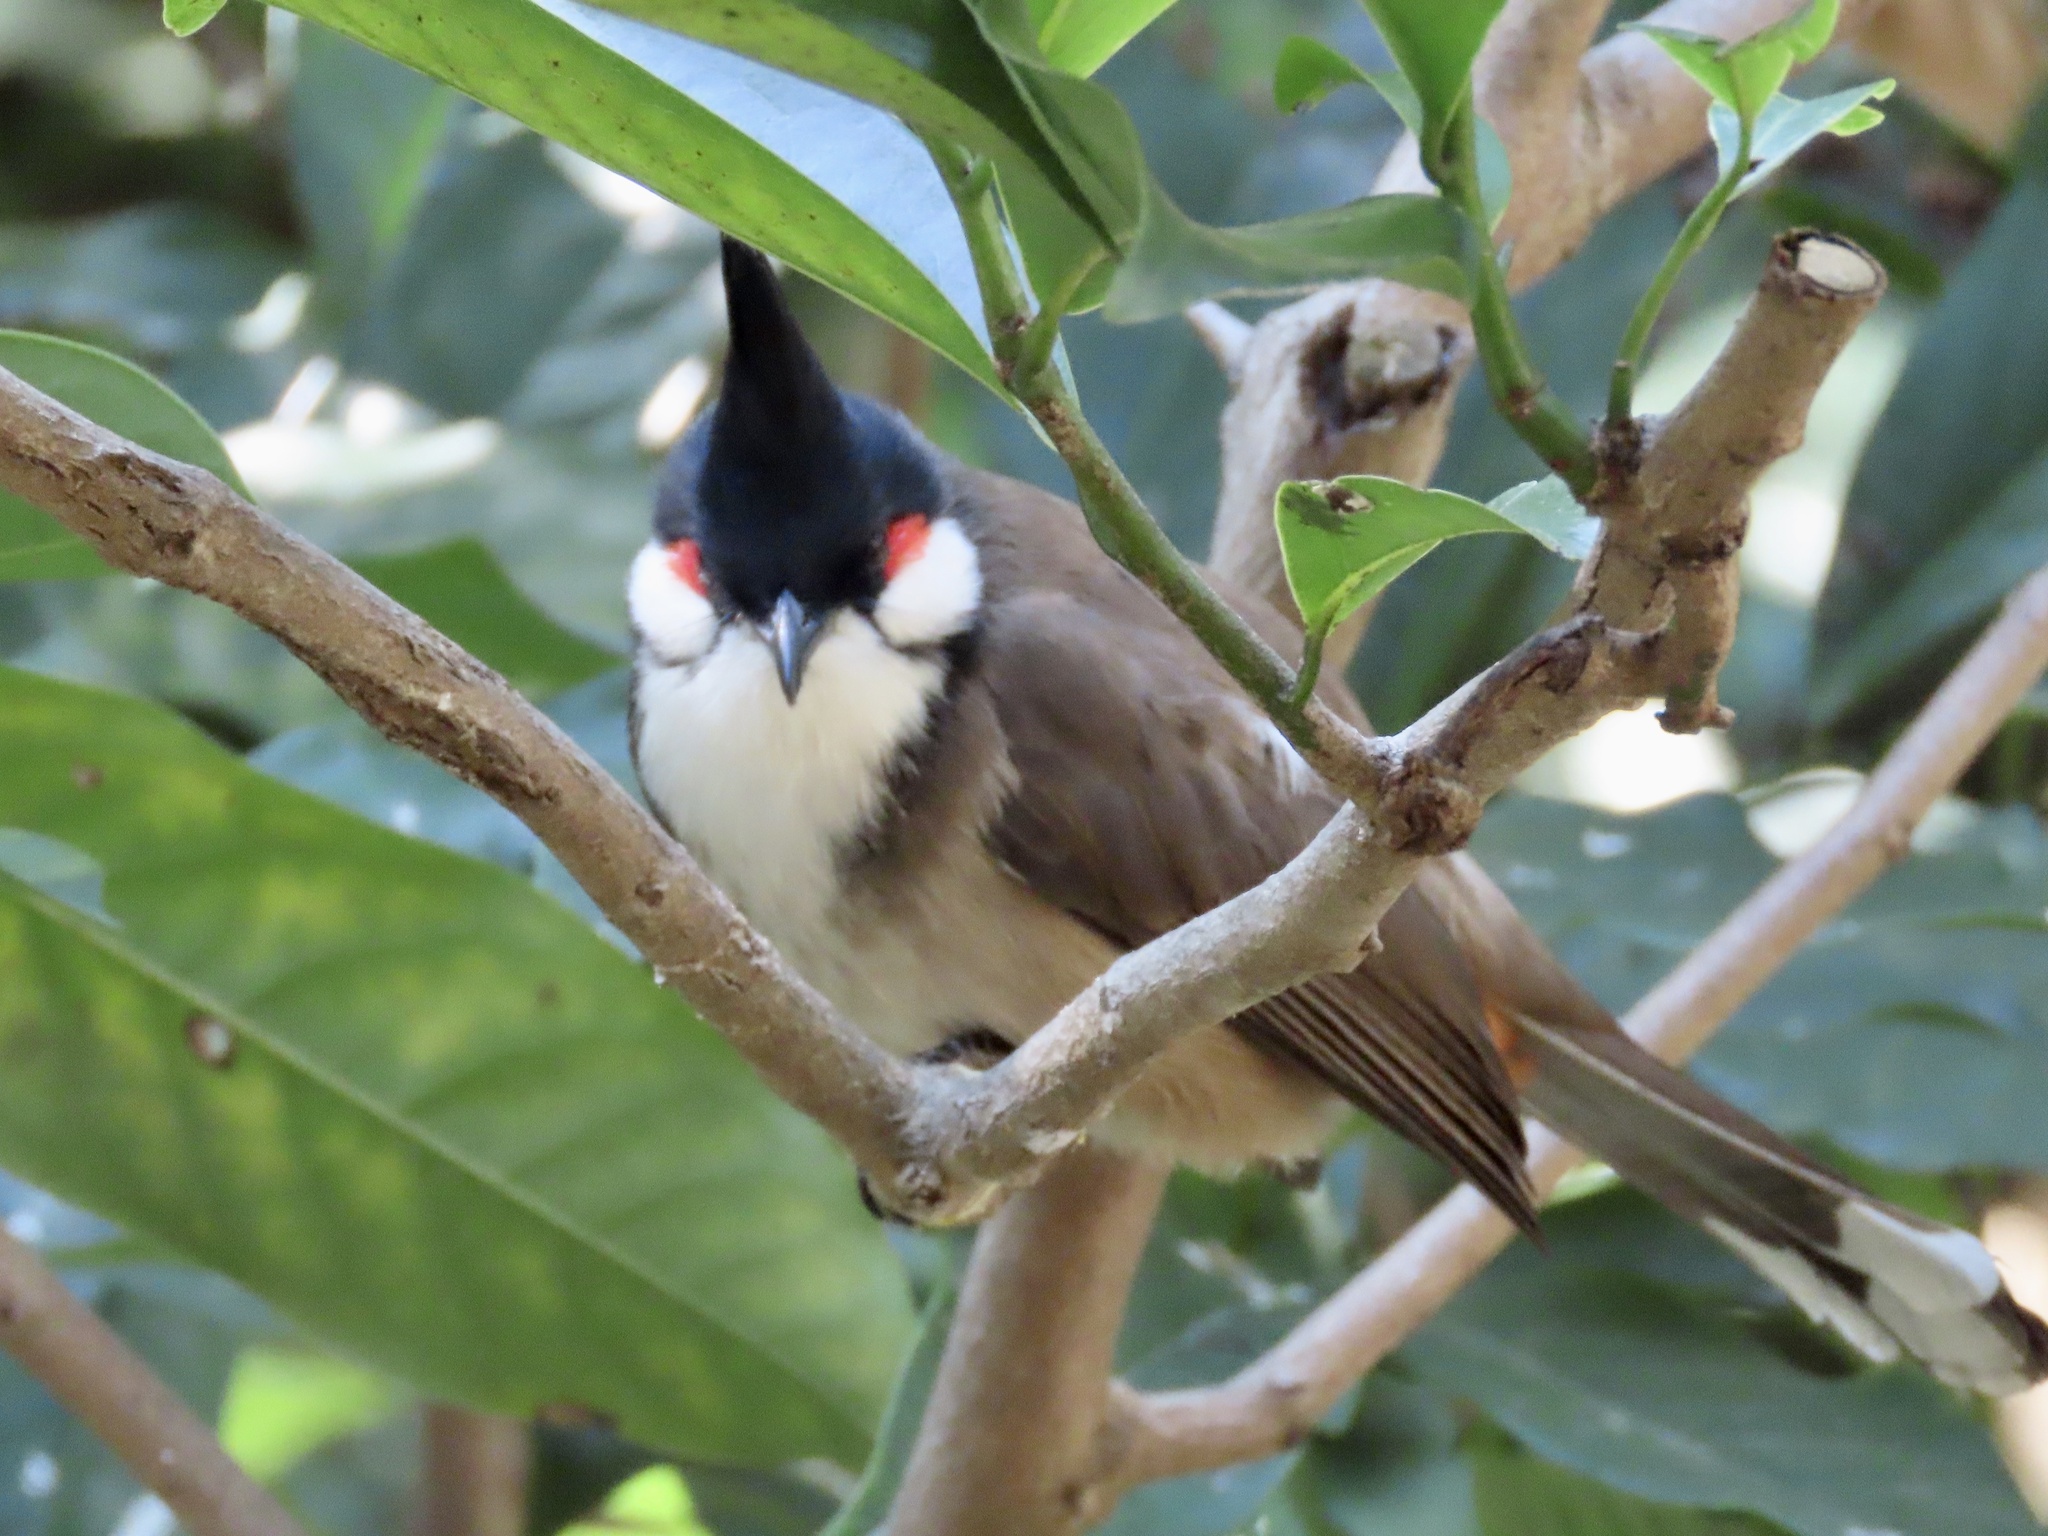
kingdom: Animalia
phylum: Chordata
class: Aves
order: Passeriformes
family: Pycnonotidae
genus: Pycnonotus
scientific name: Pycnonotus jocosus
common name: Red-whiskered bulbul
